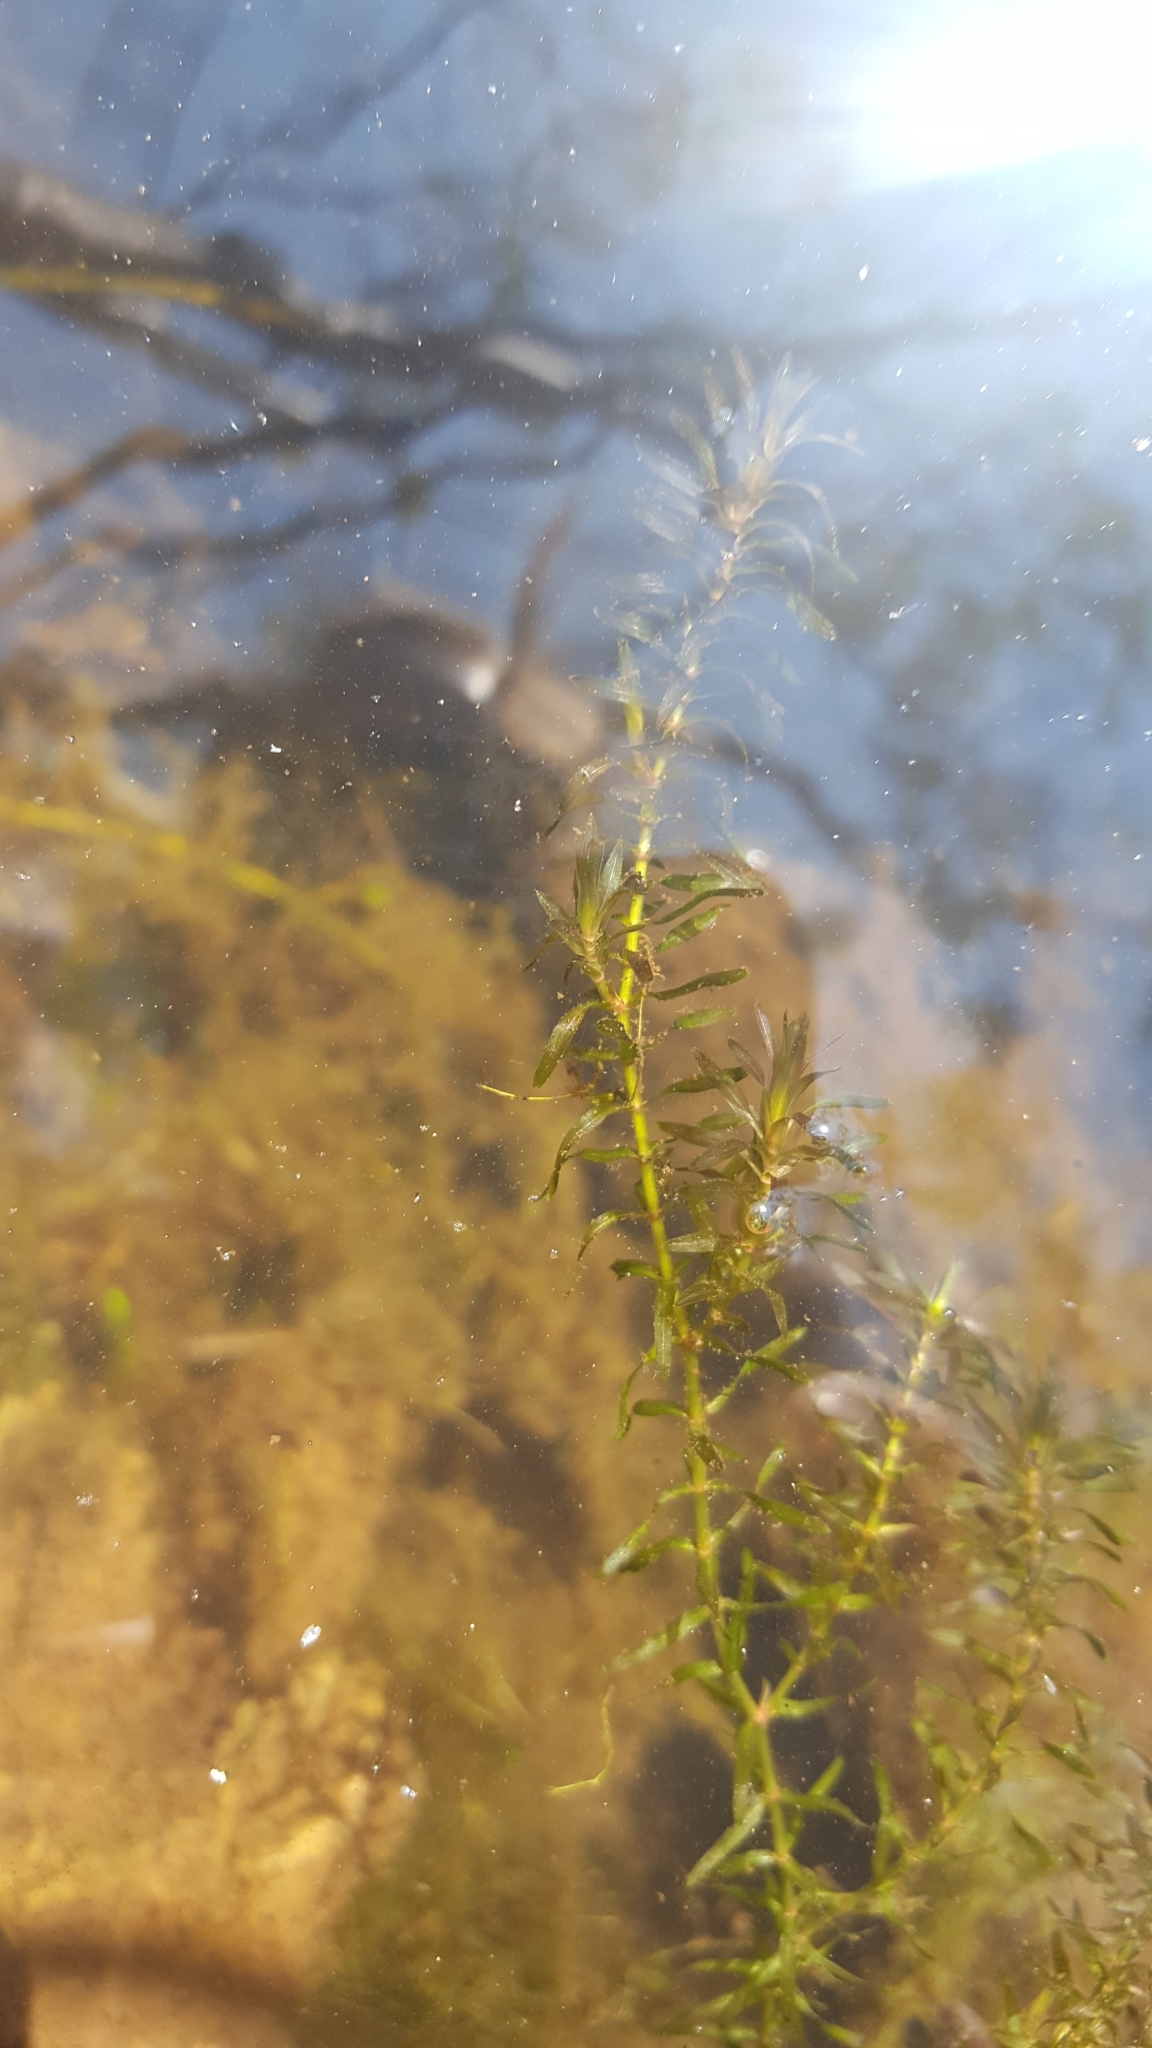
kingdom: Plantae
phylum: Tracheophyta
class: Liliopsida
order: Alismatales
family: Hydrocharitaceae
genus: Elodea
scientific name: Elodea canadensis
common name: Canadian waterweed
